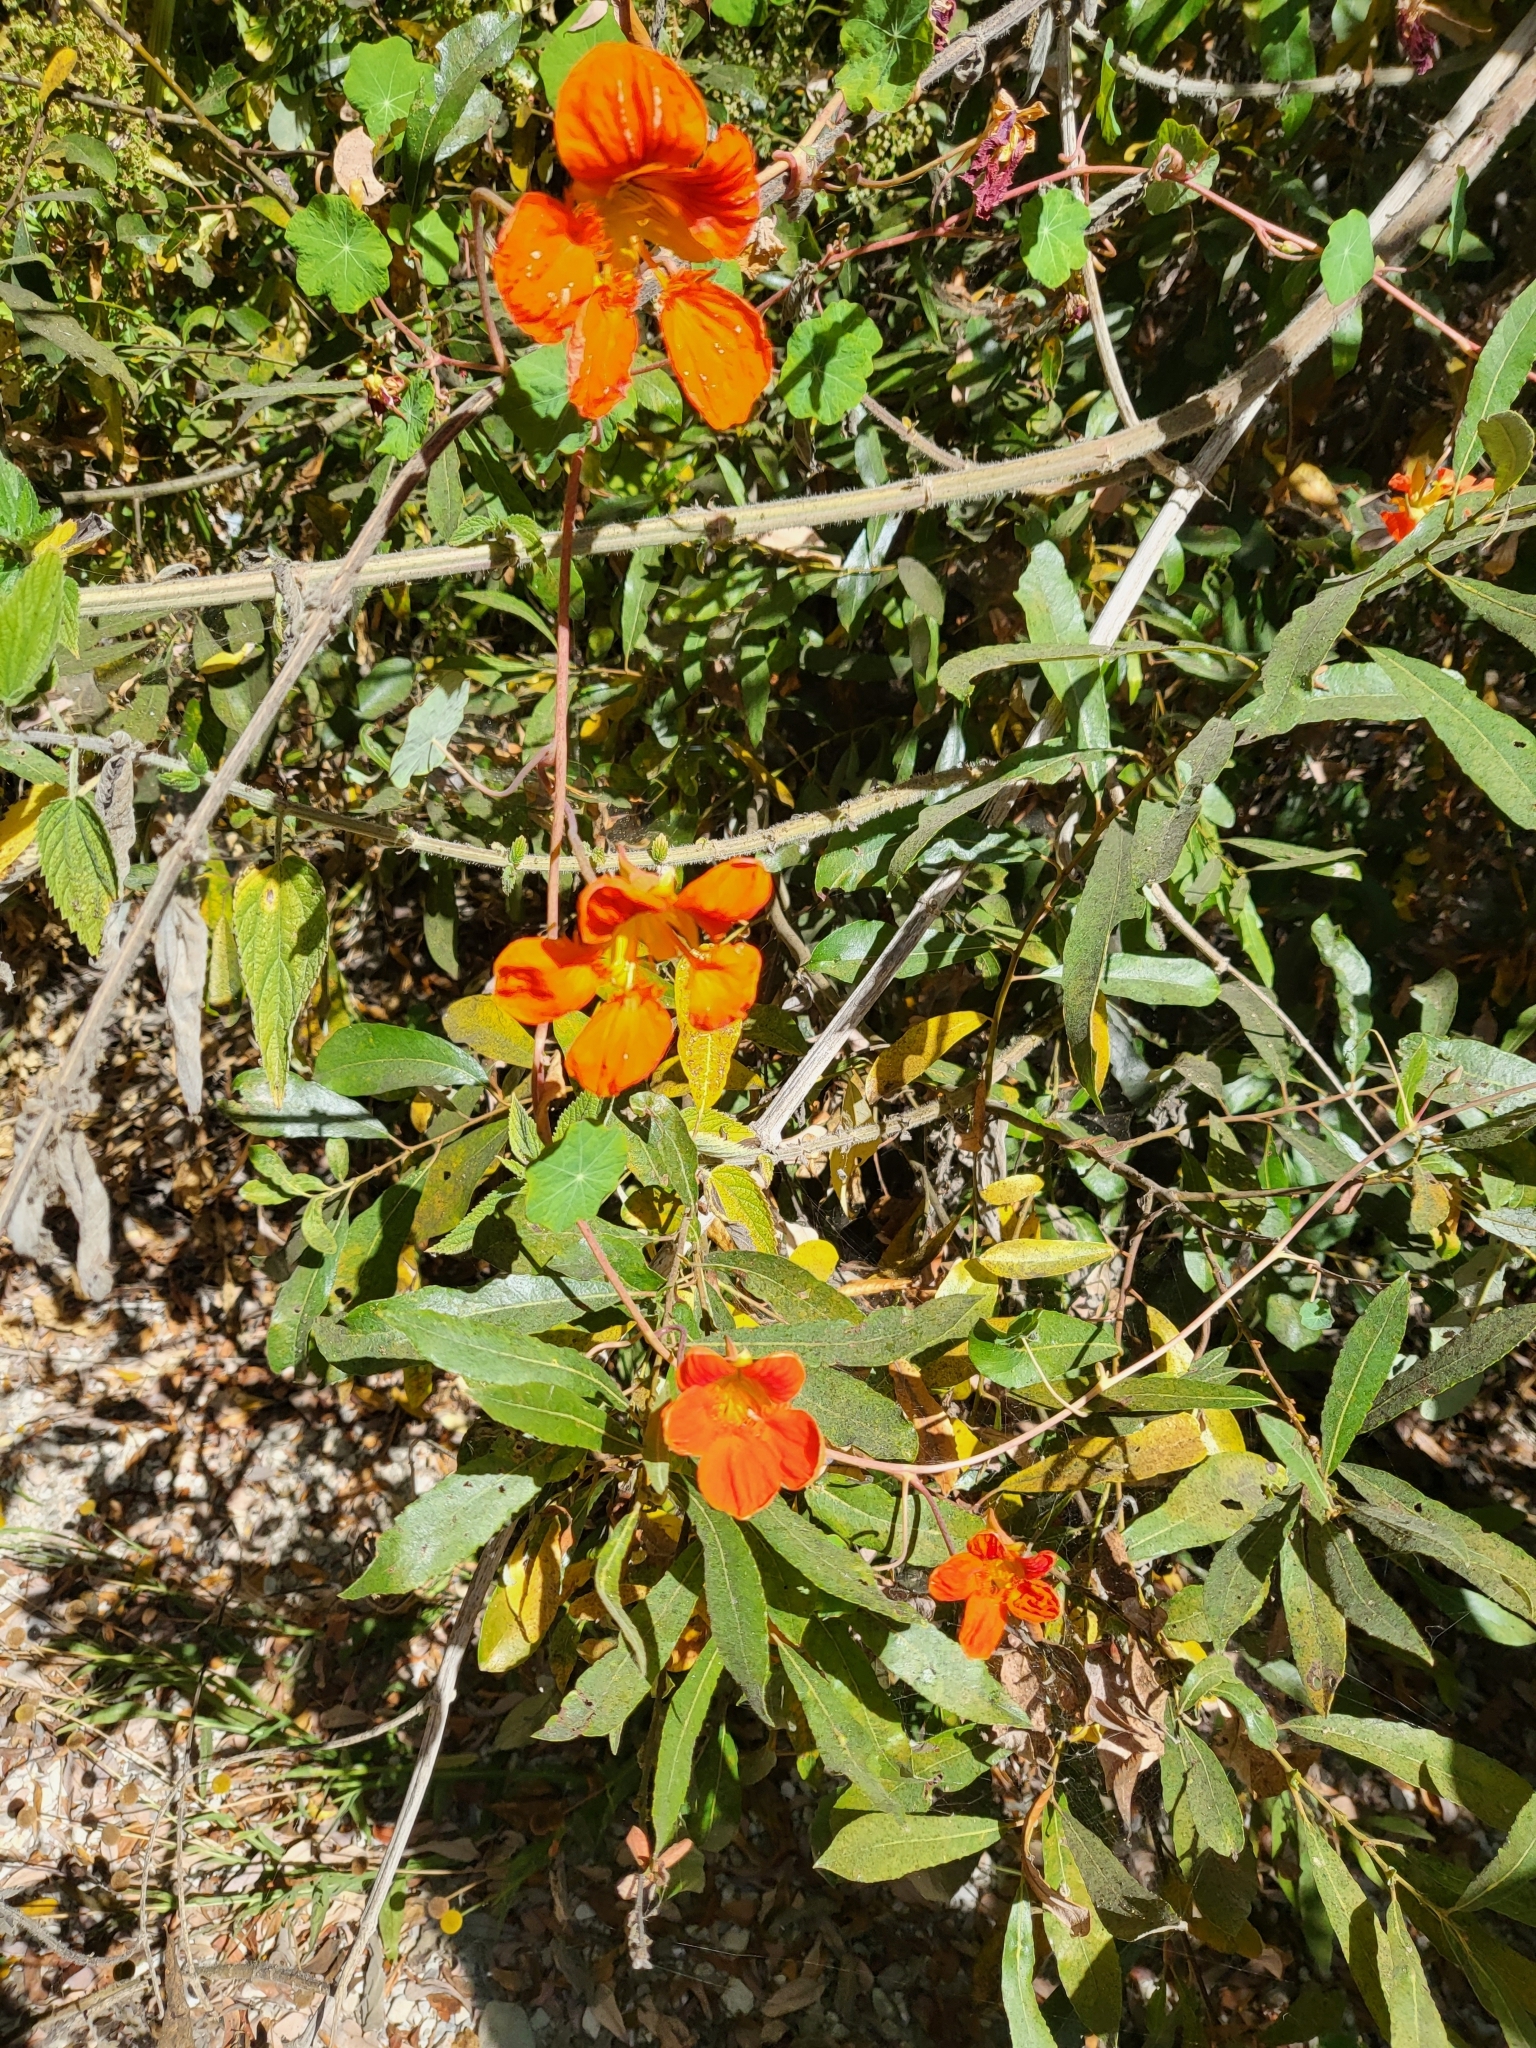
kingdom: Plantae
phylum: Tracheophyta
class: Magnoliopsida
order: Brassicales
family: Tropaeolaceae
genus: Tropaeolum
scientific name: Tropaeolum majus
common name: Nasturtium
